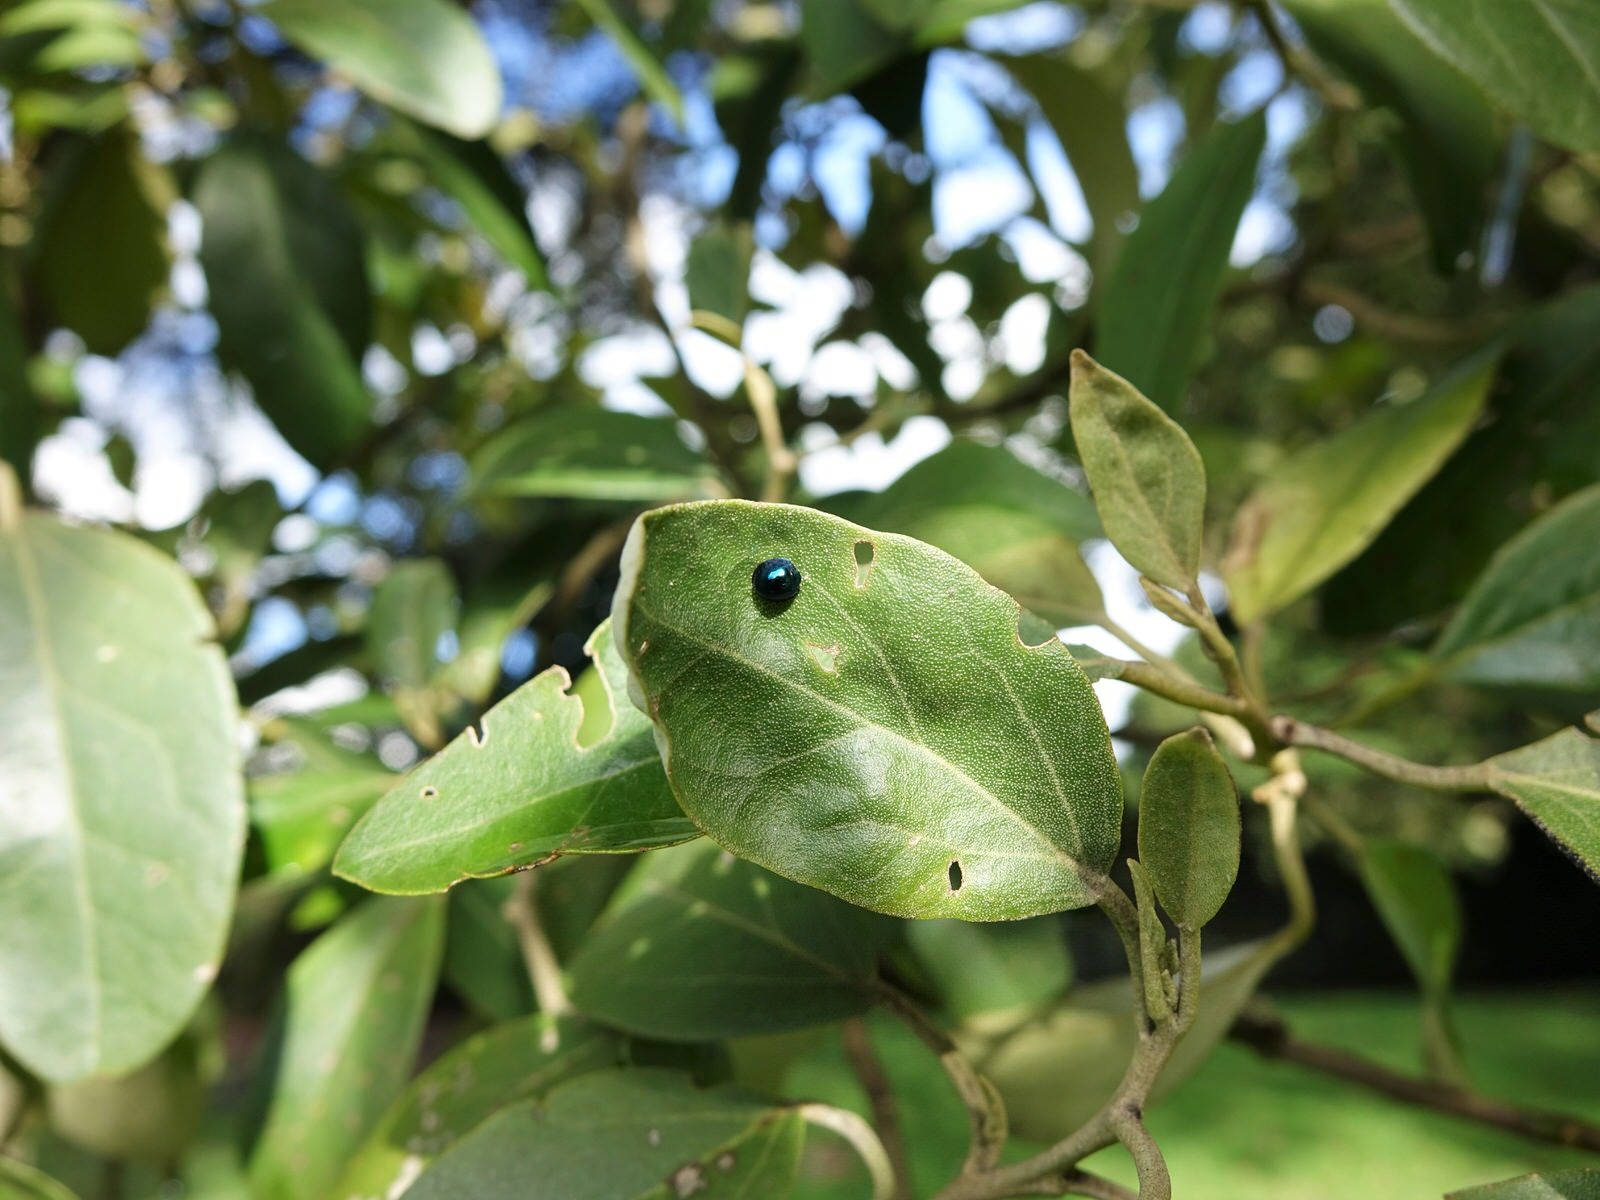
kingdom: Animalia
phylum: Arthropoda
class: Insecta
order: Coleoptera
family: Coccinellidae
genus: Halmus
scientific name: Halmus chalybeus
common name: Steel blue ladybird beetle
